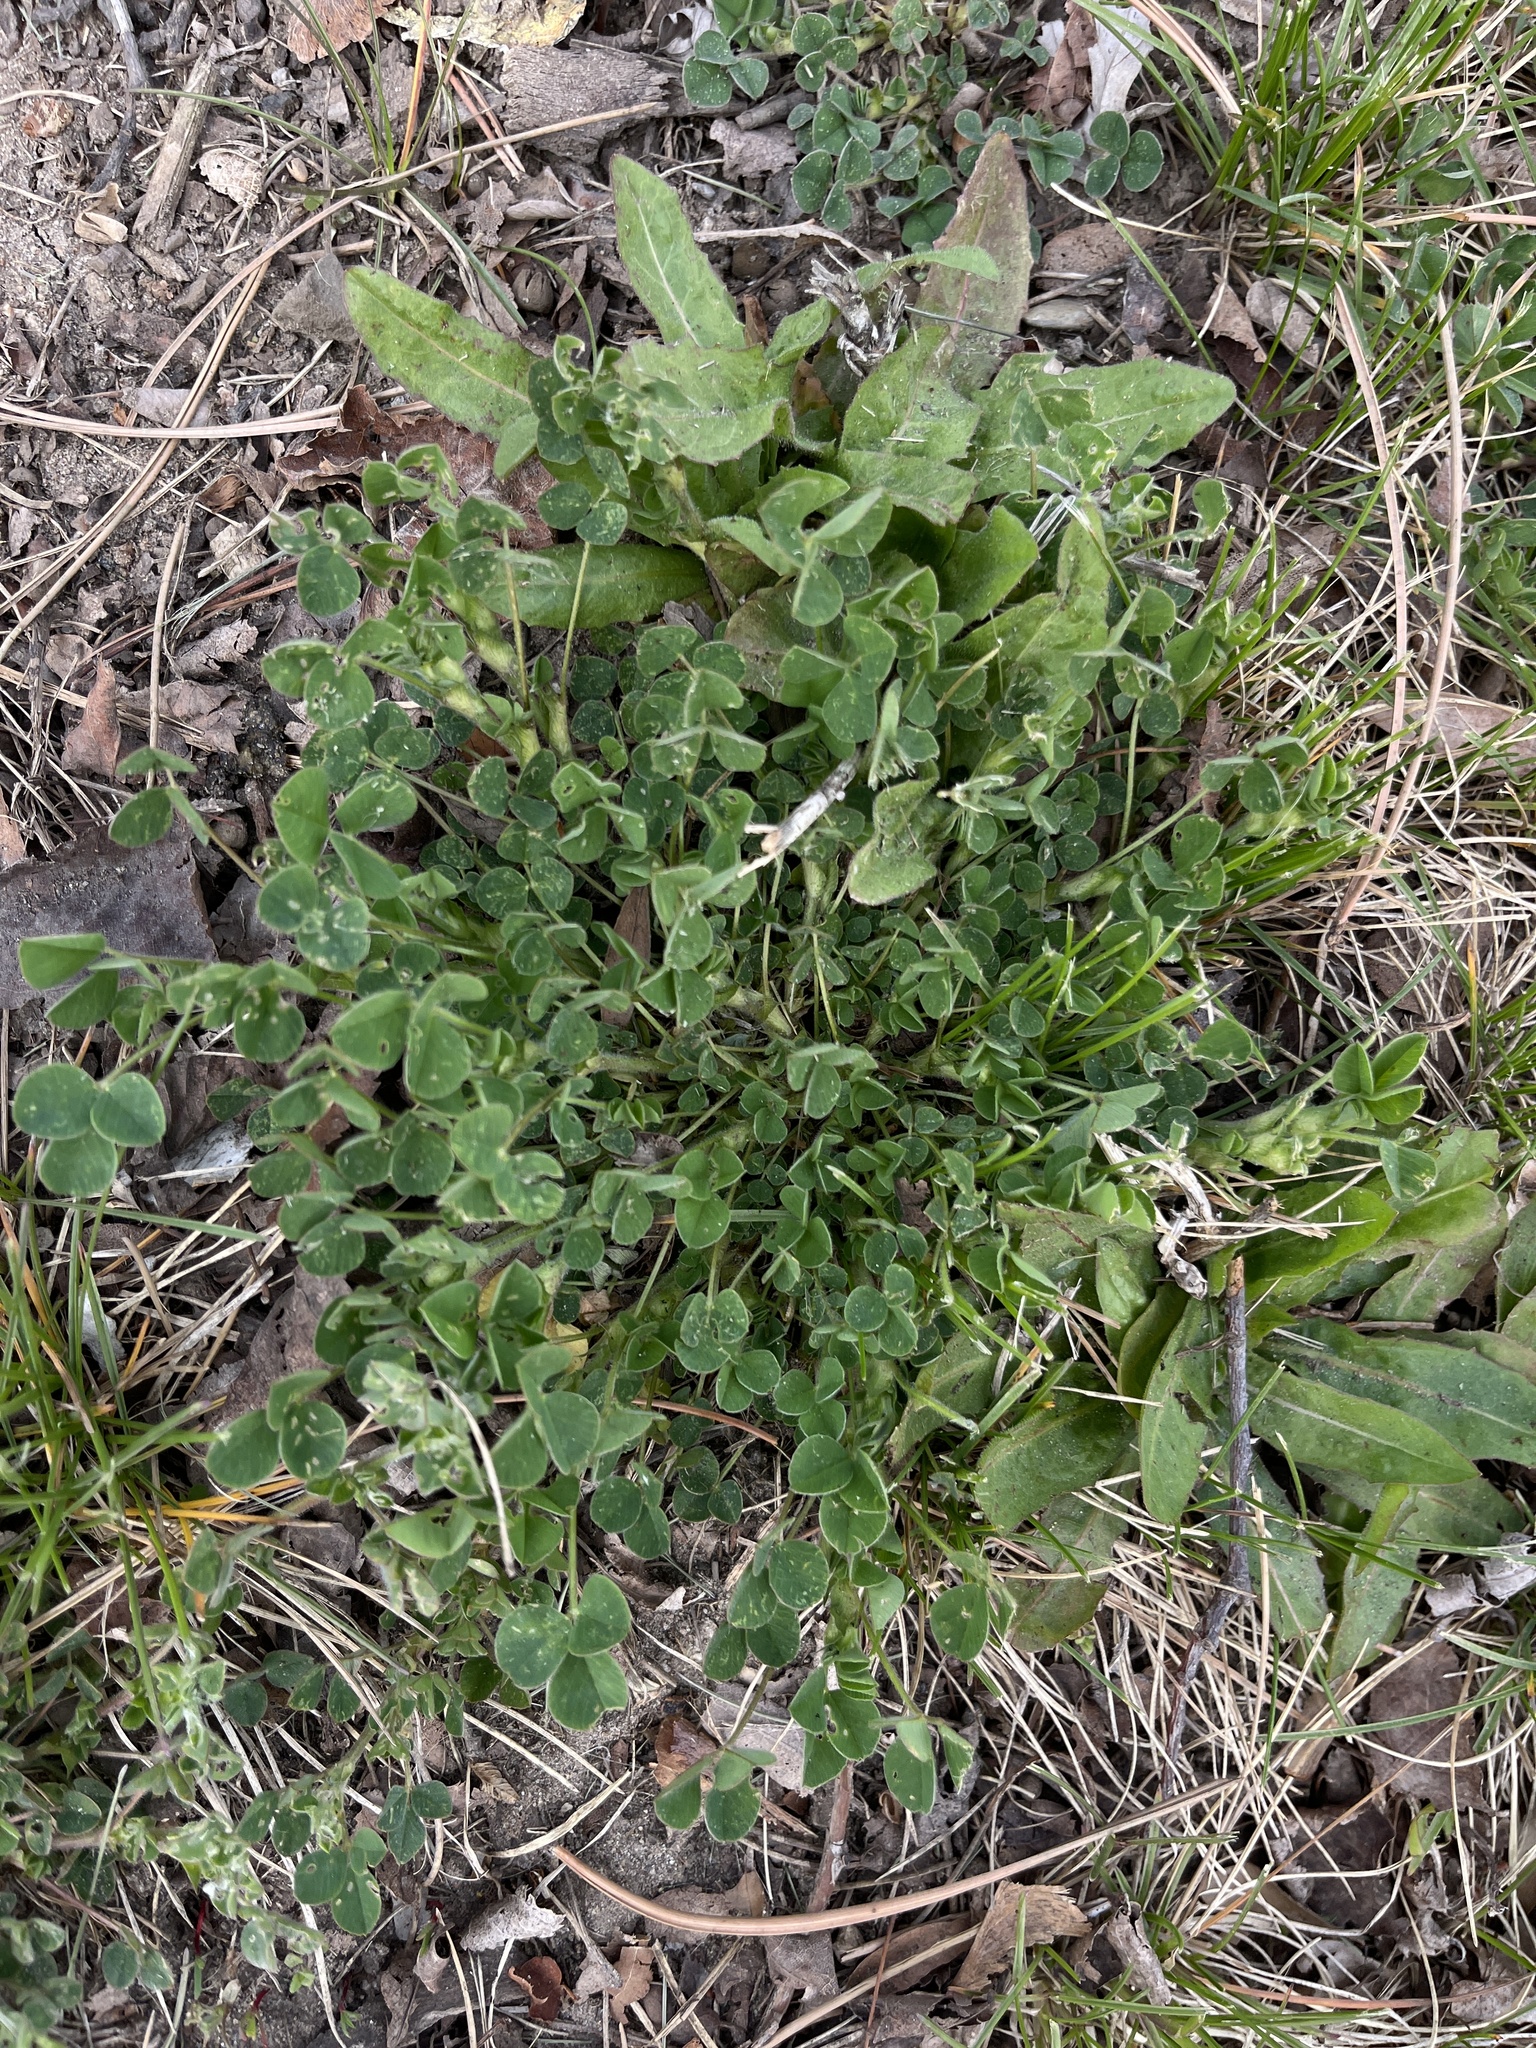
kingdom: Plantae
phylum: Tracheophyta
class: Magnoliopsida
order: Fabales
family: Fabaceae
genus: Medicago
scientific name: Medicago lupulina
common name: Black medick
